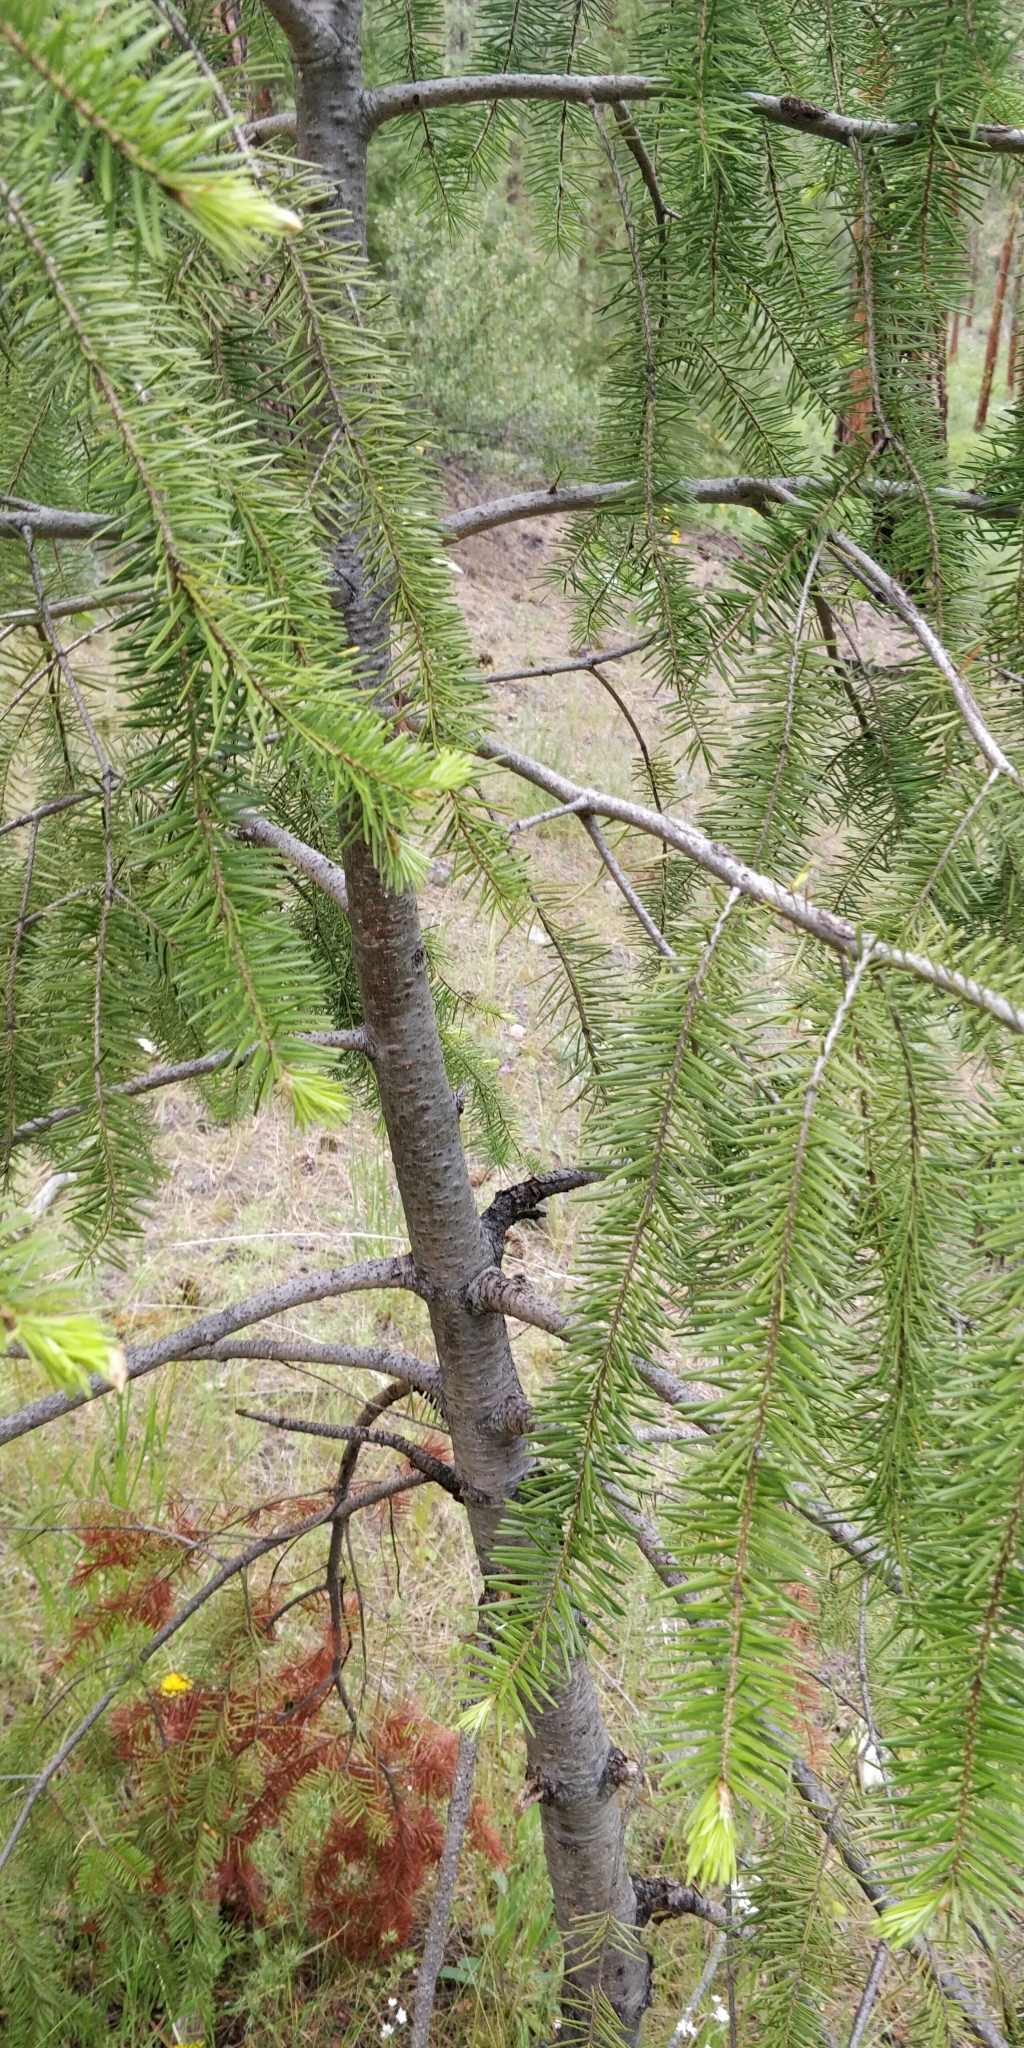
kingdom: Plantae
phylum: Tracheophyta
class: Pinopsida
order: Pinales
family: Pinaceae
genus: Pseudotsuga
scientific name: Pseudotsuga menziesii
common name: Douglas fir
